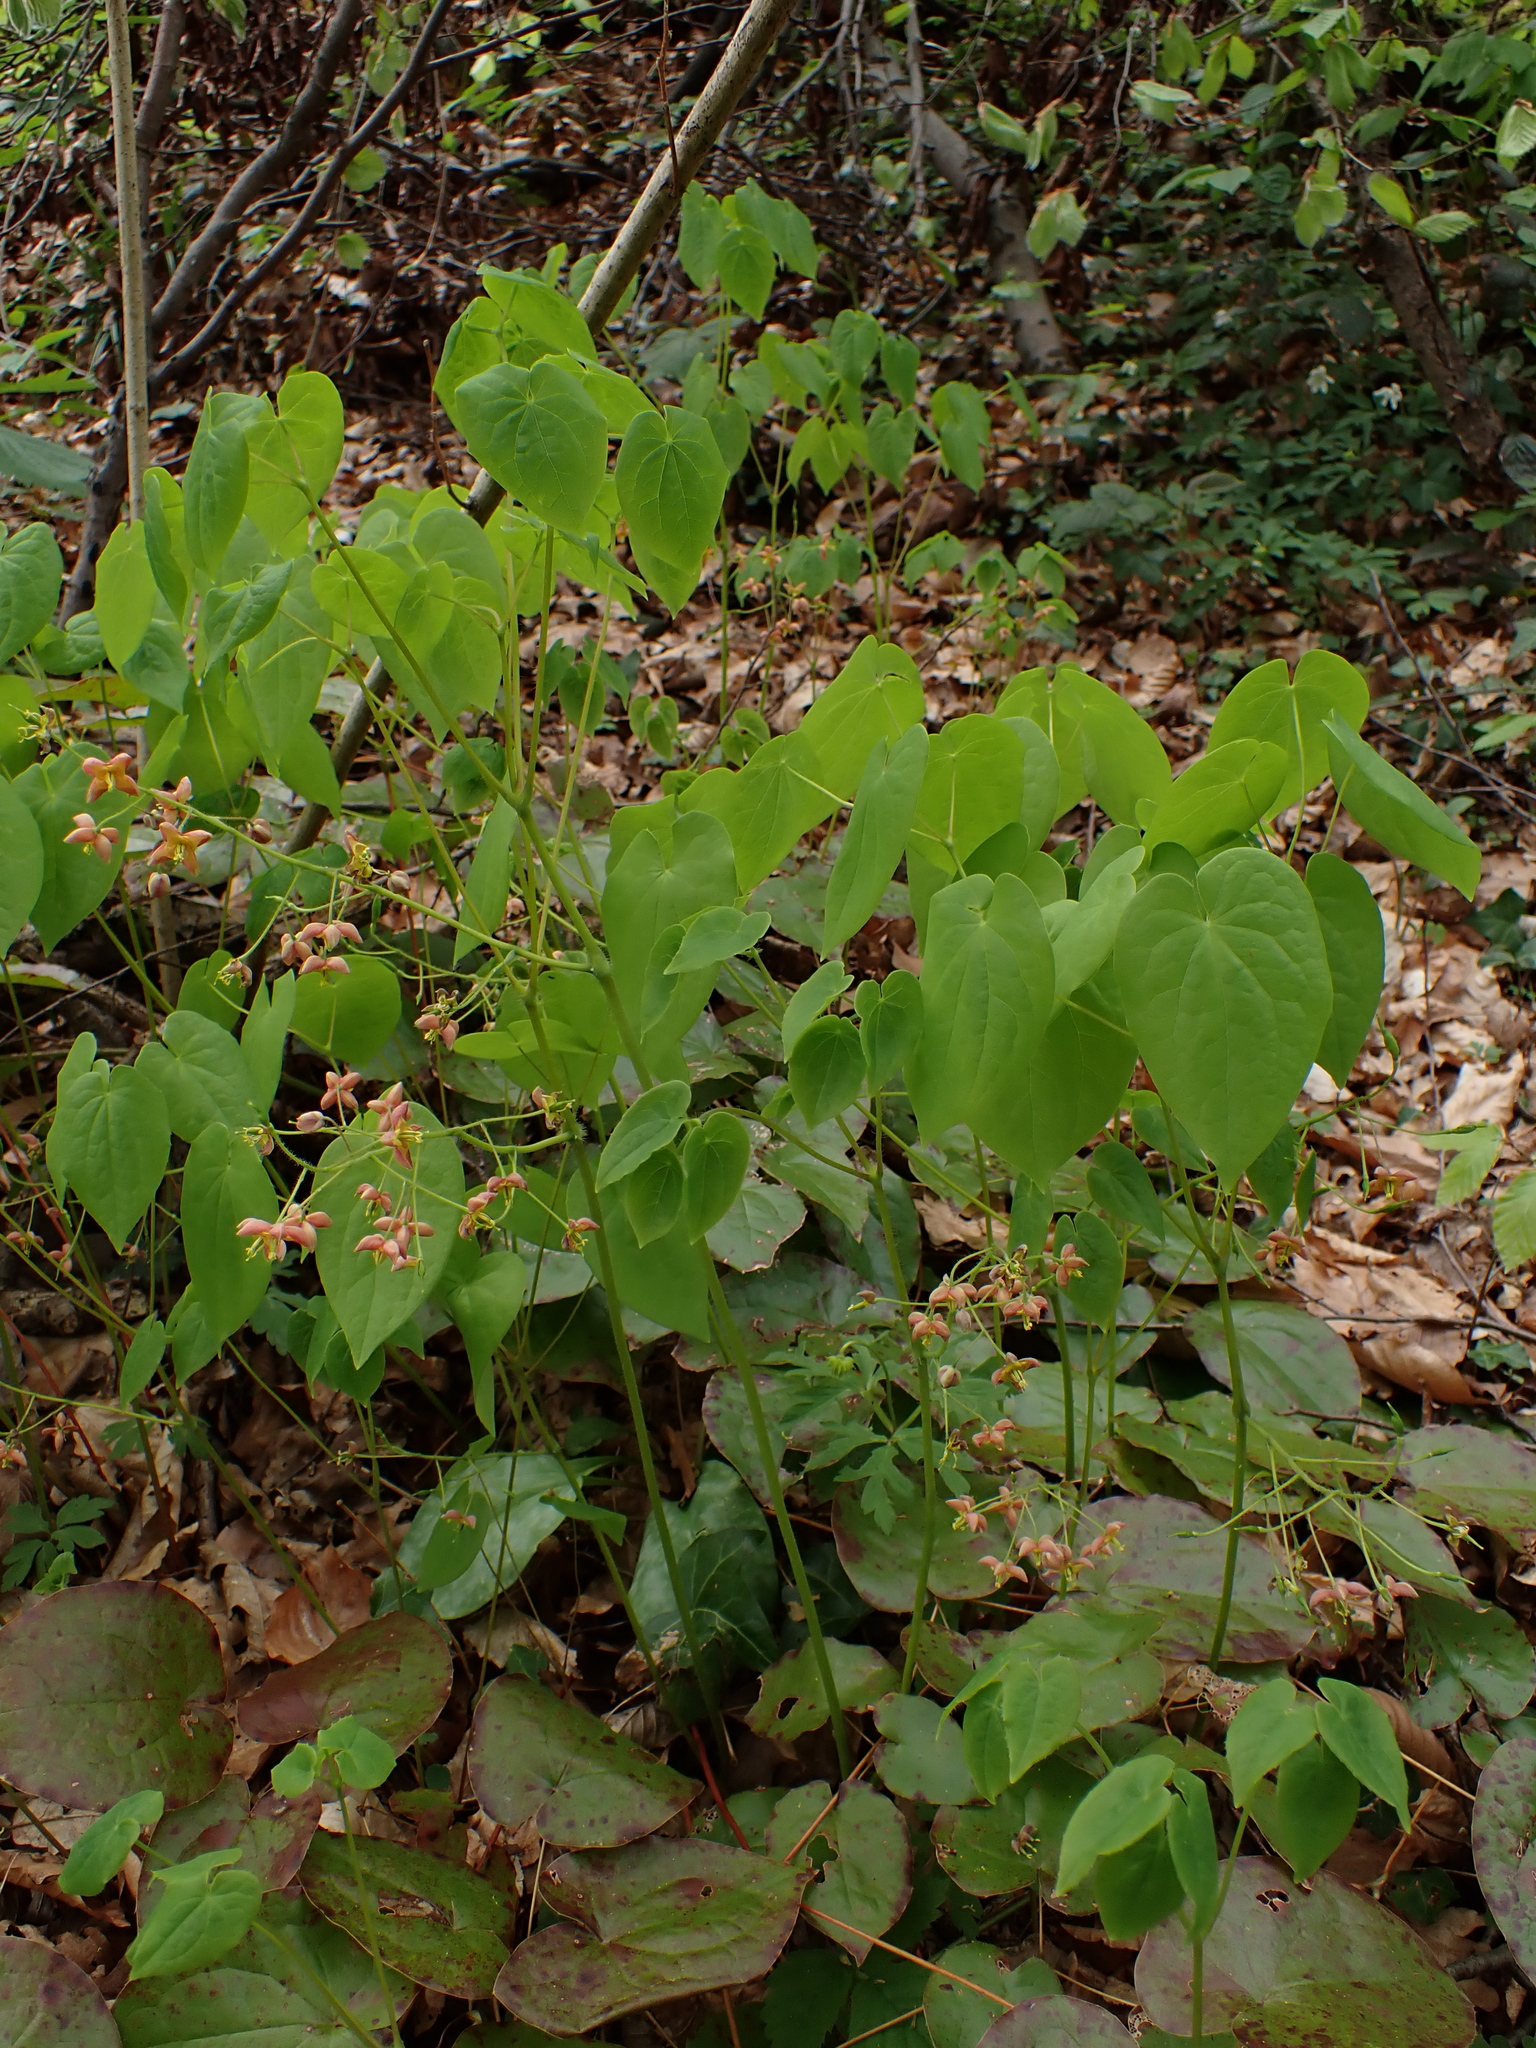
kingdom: Plantae
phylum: Tracheophyta
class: Magnoliopsida
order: Ranunculales
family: Berberidaceae
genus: Epimedium
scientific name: Epimedium alpinum
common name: Barrenwort
